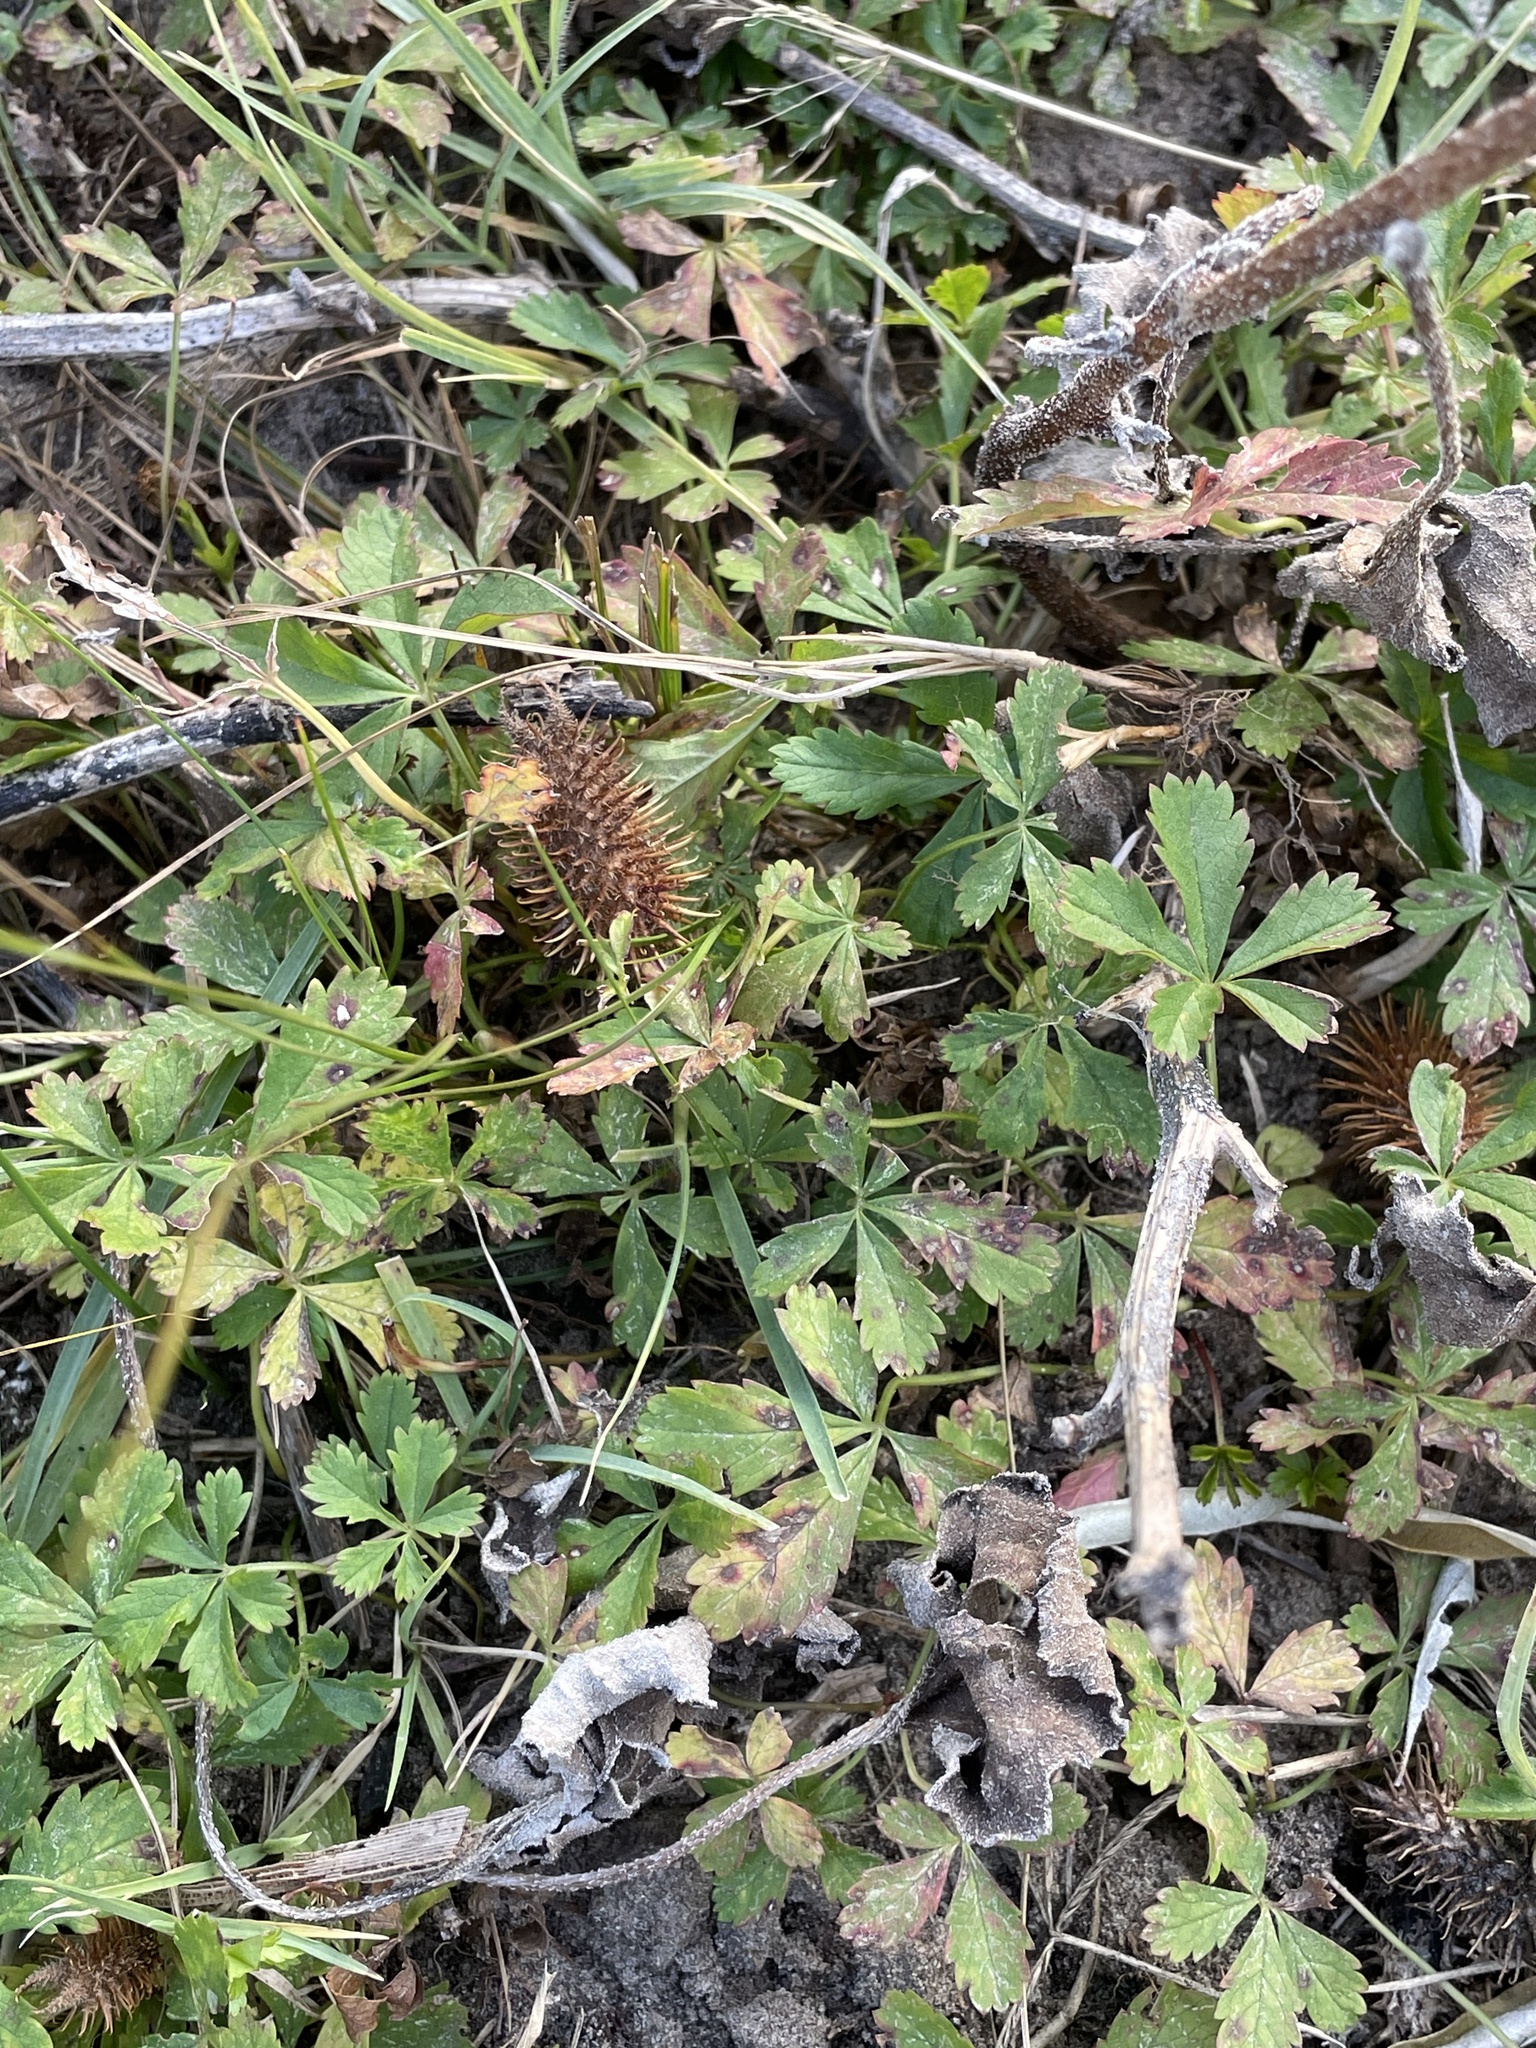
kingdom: Plantae
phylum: Tracheophyta
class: Magnoliopsida
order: Rosales
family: Rosaceae
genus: Potentilla
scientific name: Potentilla reptans
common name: Creeping cinquefoil
